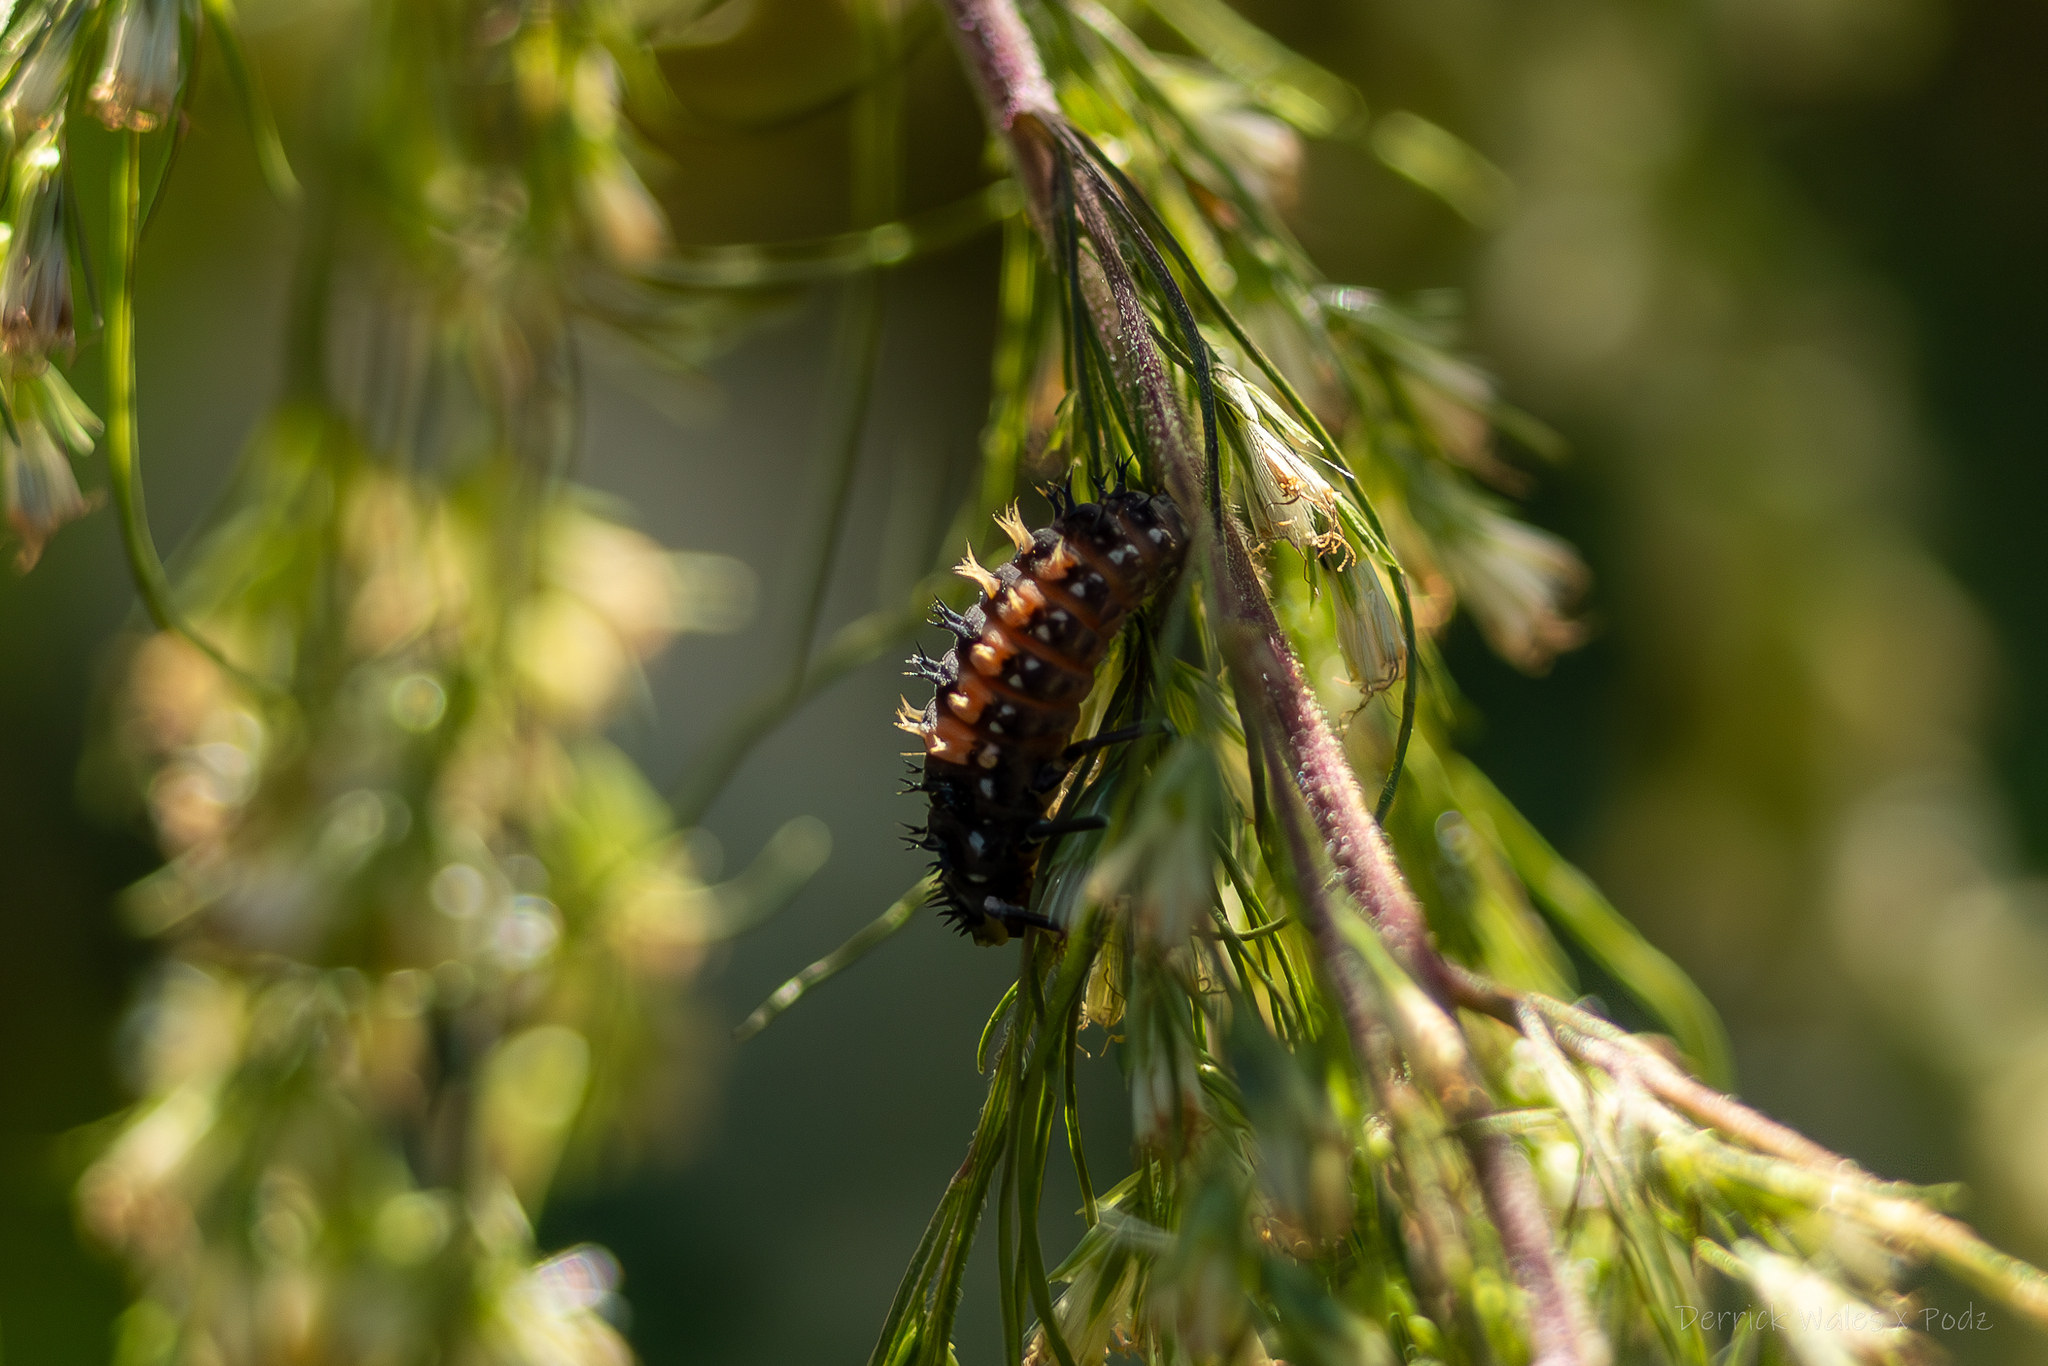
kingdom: Animalia
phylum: Arthropoda
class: Insecta
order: Coleoptera
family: Coccinellidae
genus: Harmonia
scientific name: Harmonia axyridis
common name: Harlequin ladybird
